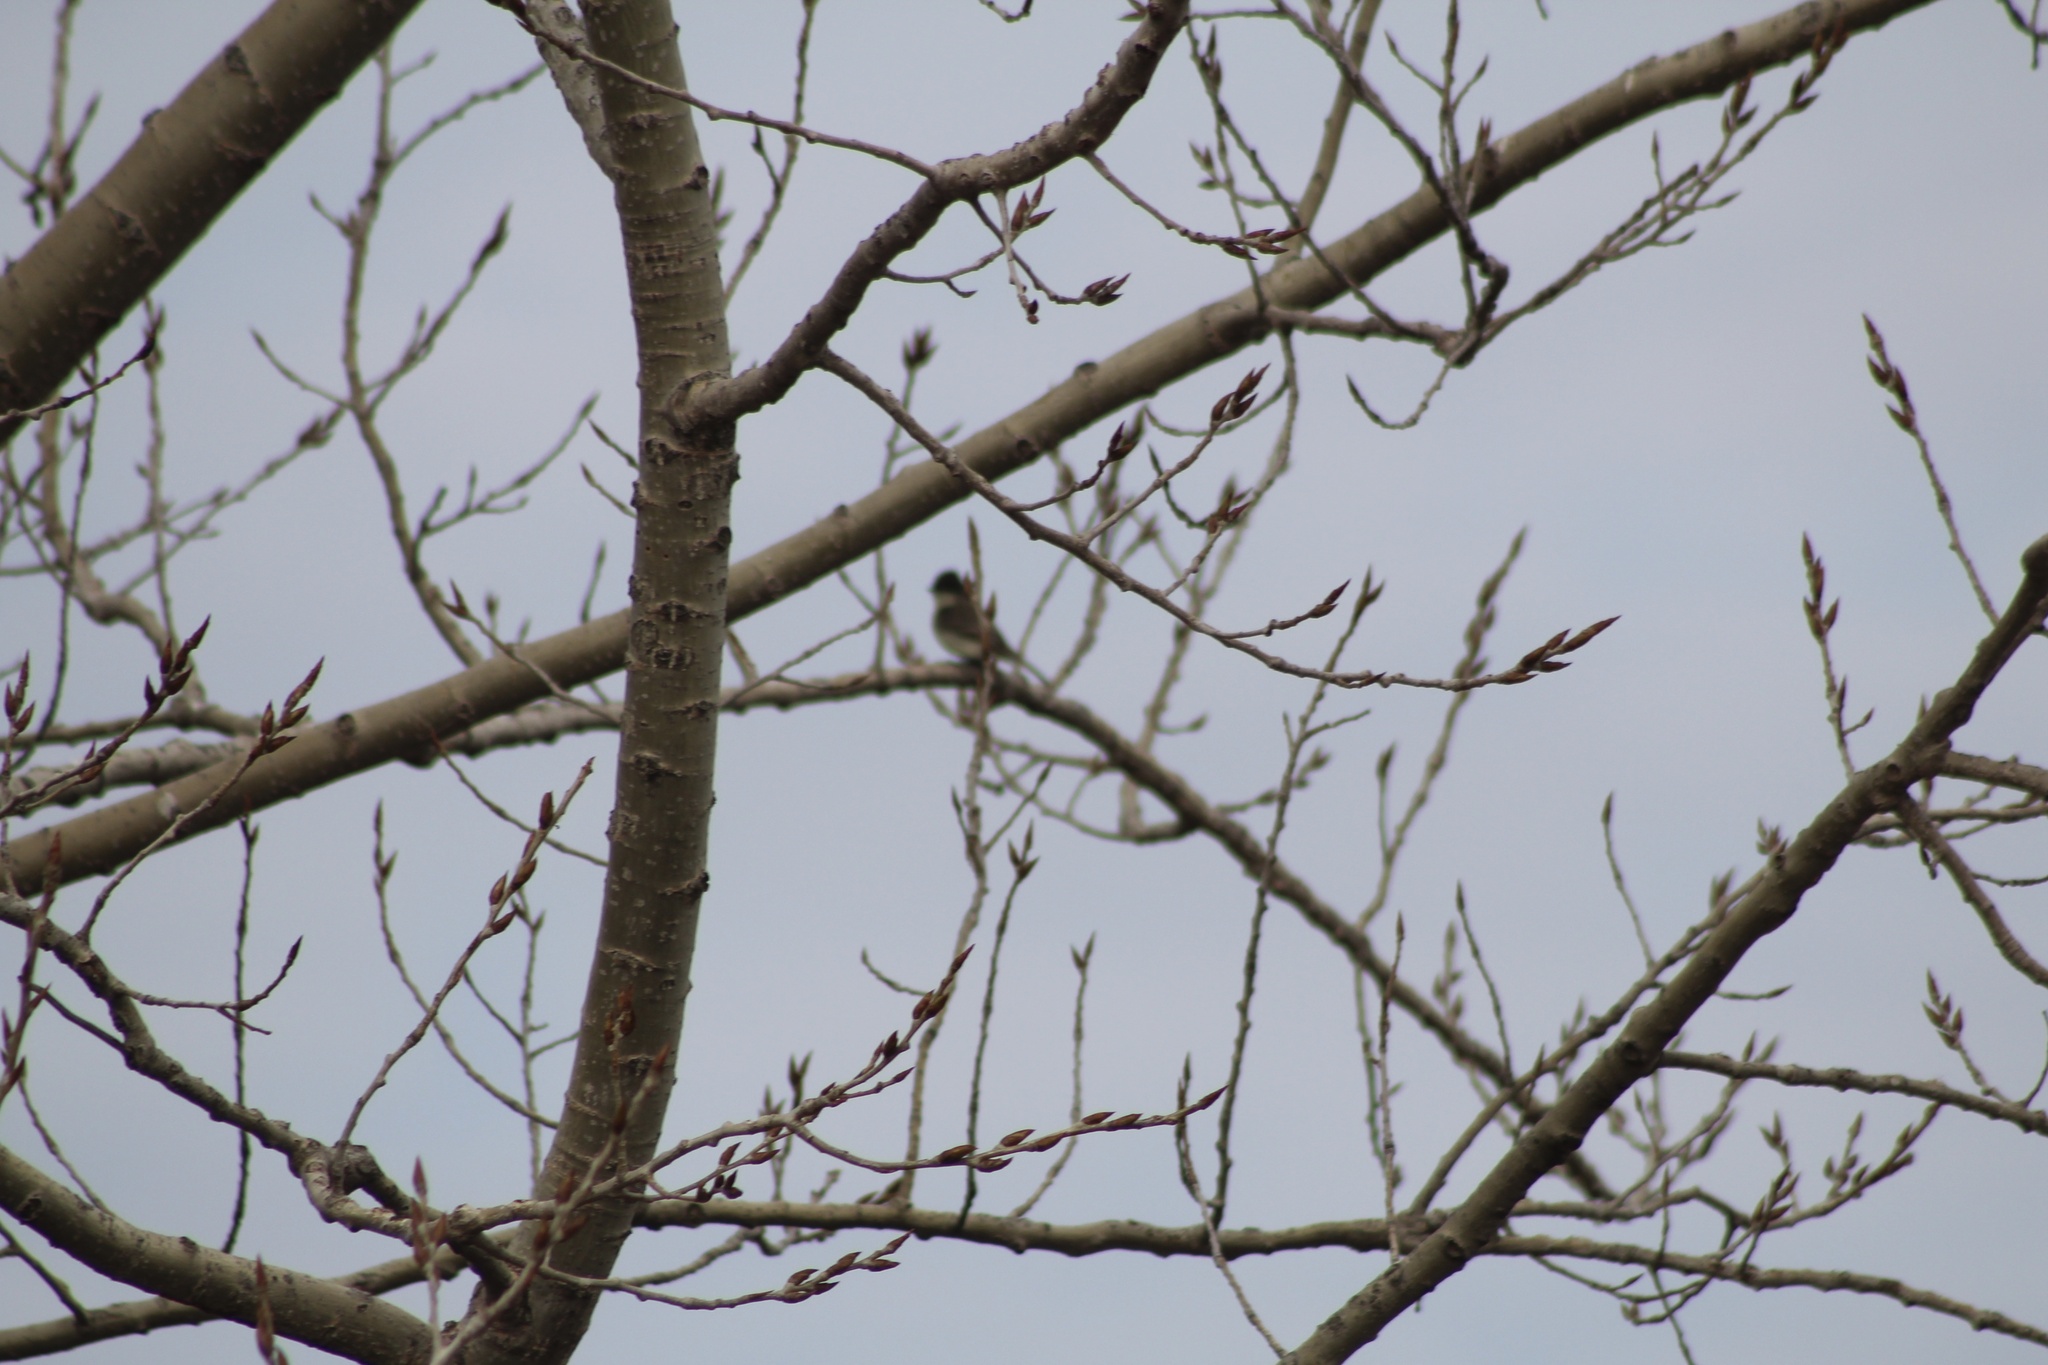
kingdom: Animalia
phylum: Chordata
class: Aves
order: Passeriformes
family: Tyrannidae
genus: Sayornis
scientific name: Sayornis phoebe
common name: Eastern phoebe
